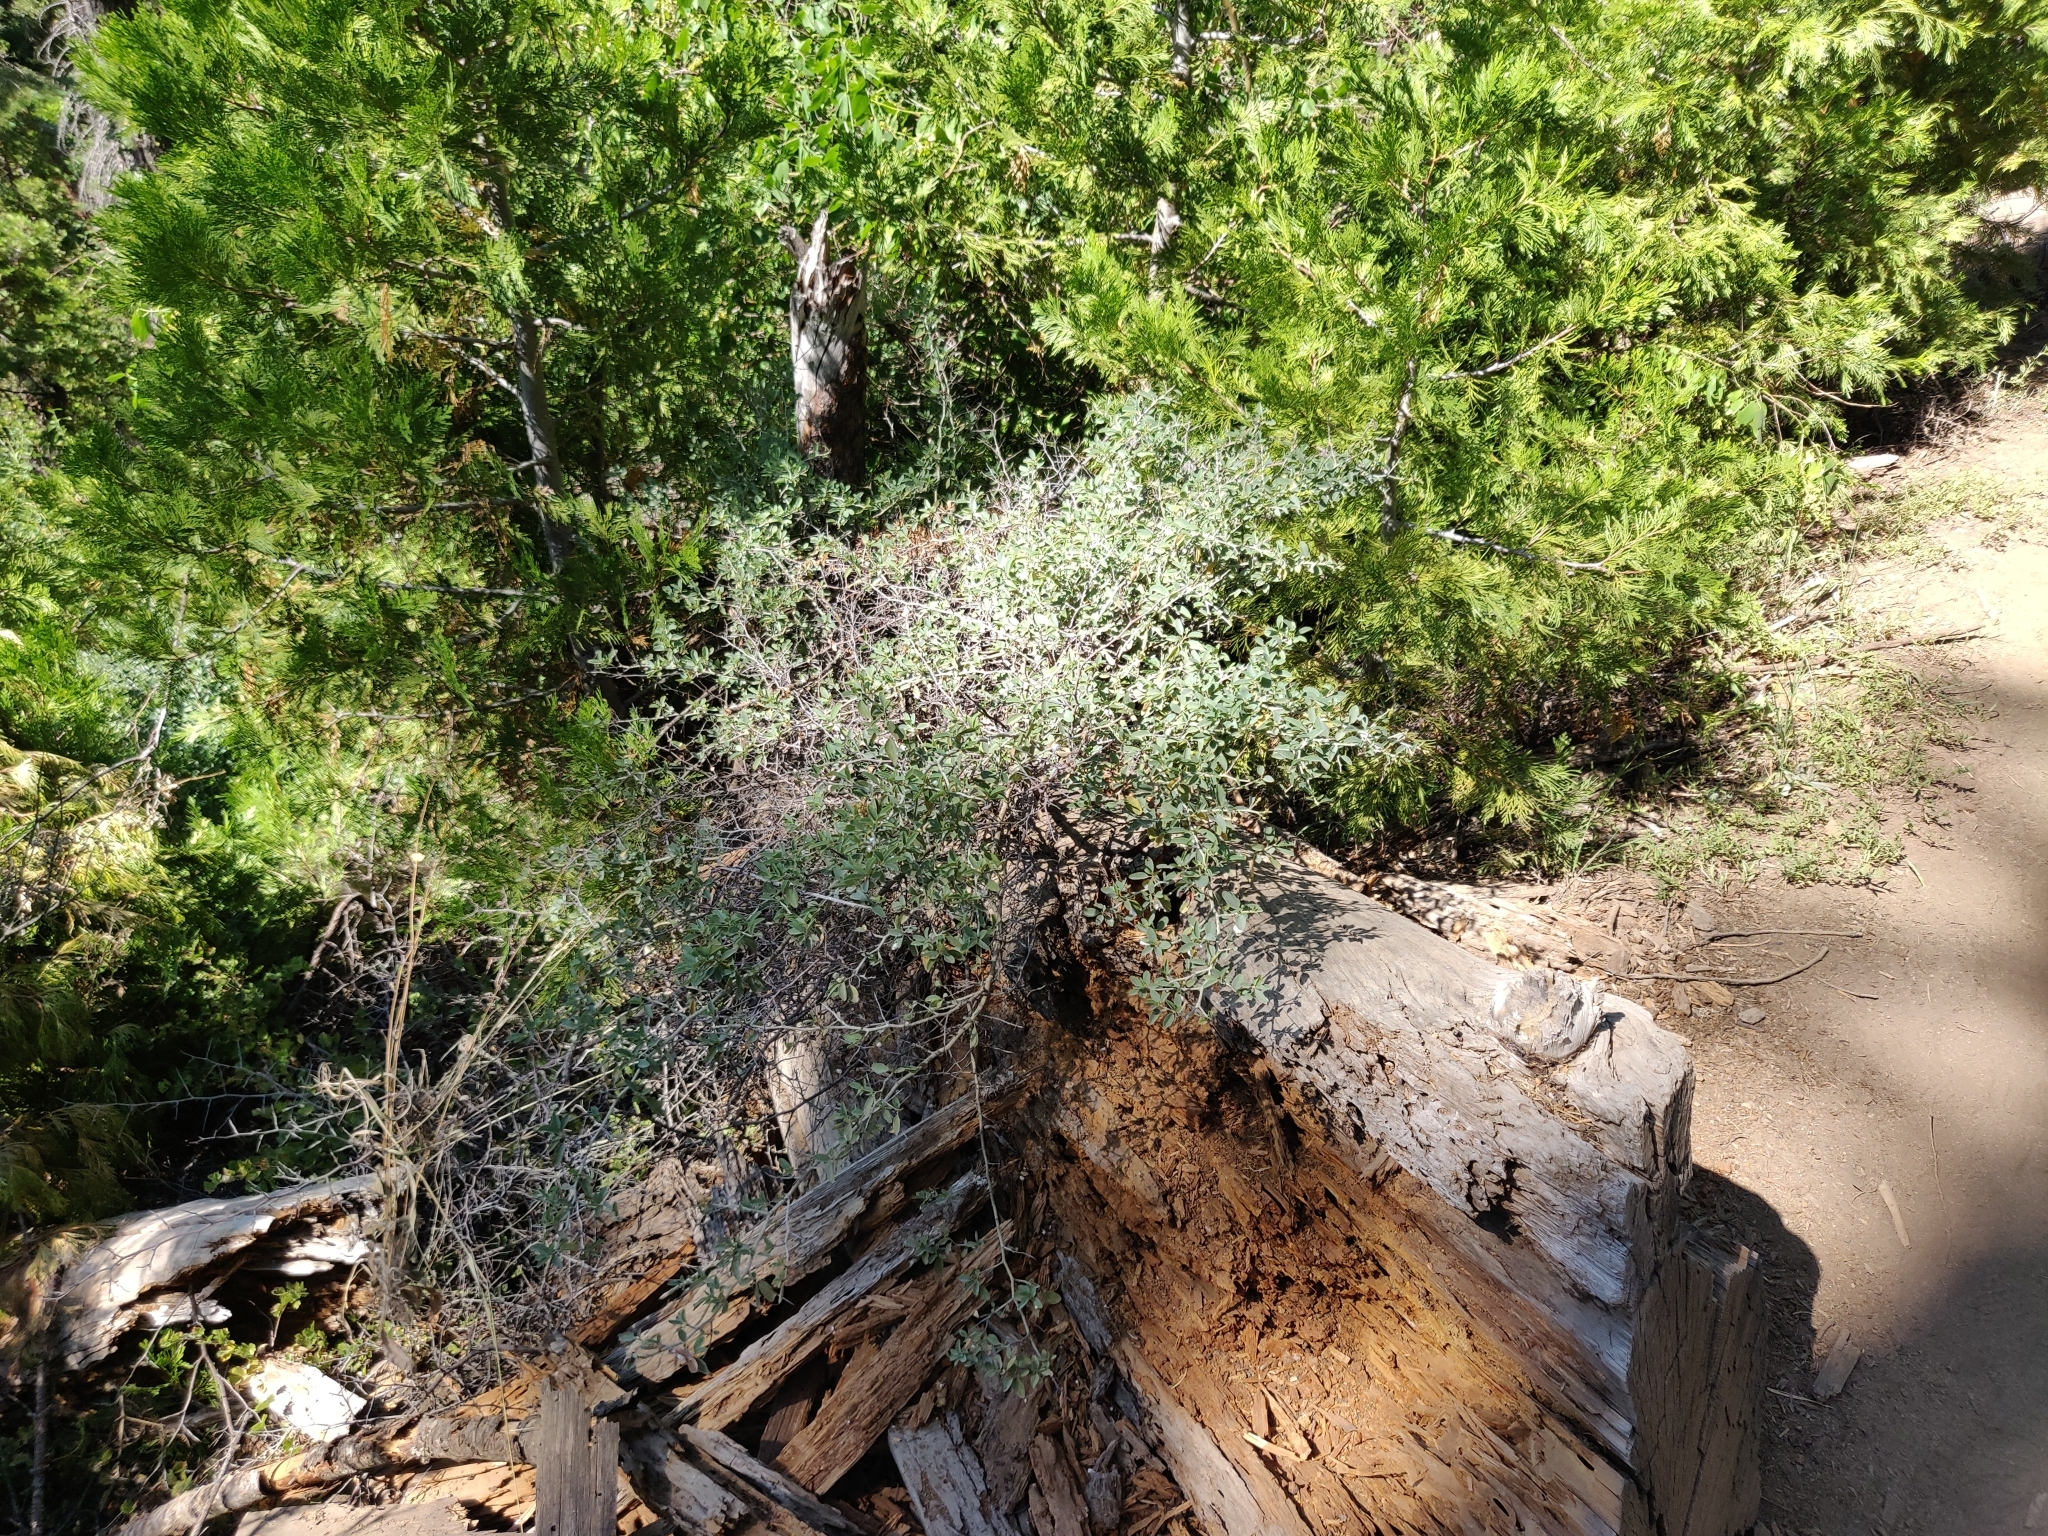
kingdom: Plantae
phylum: Tracheophyta
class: Magnoliopsida
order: Rosales
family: Rhamnaceae
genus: Ceanothus
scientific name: Ceanothus cordulatus
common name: Mountain whitethorn
